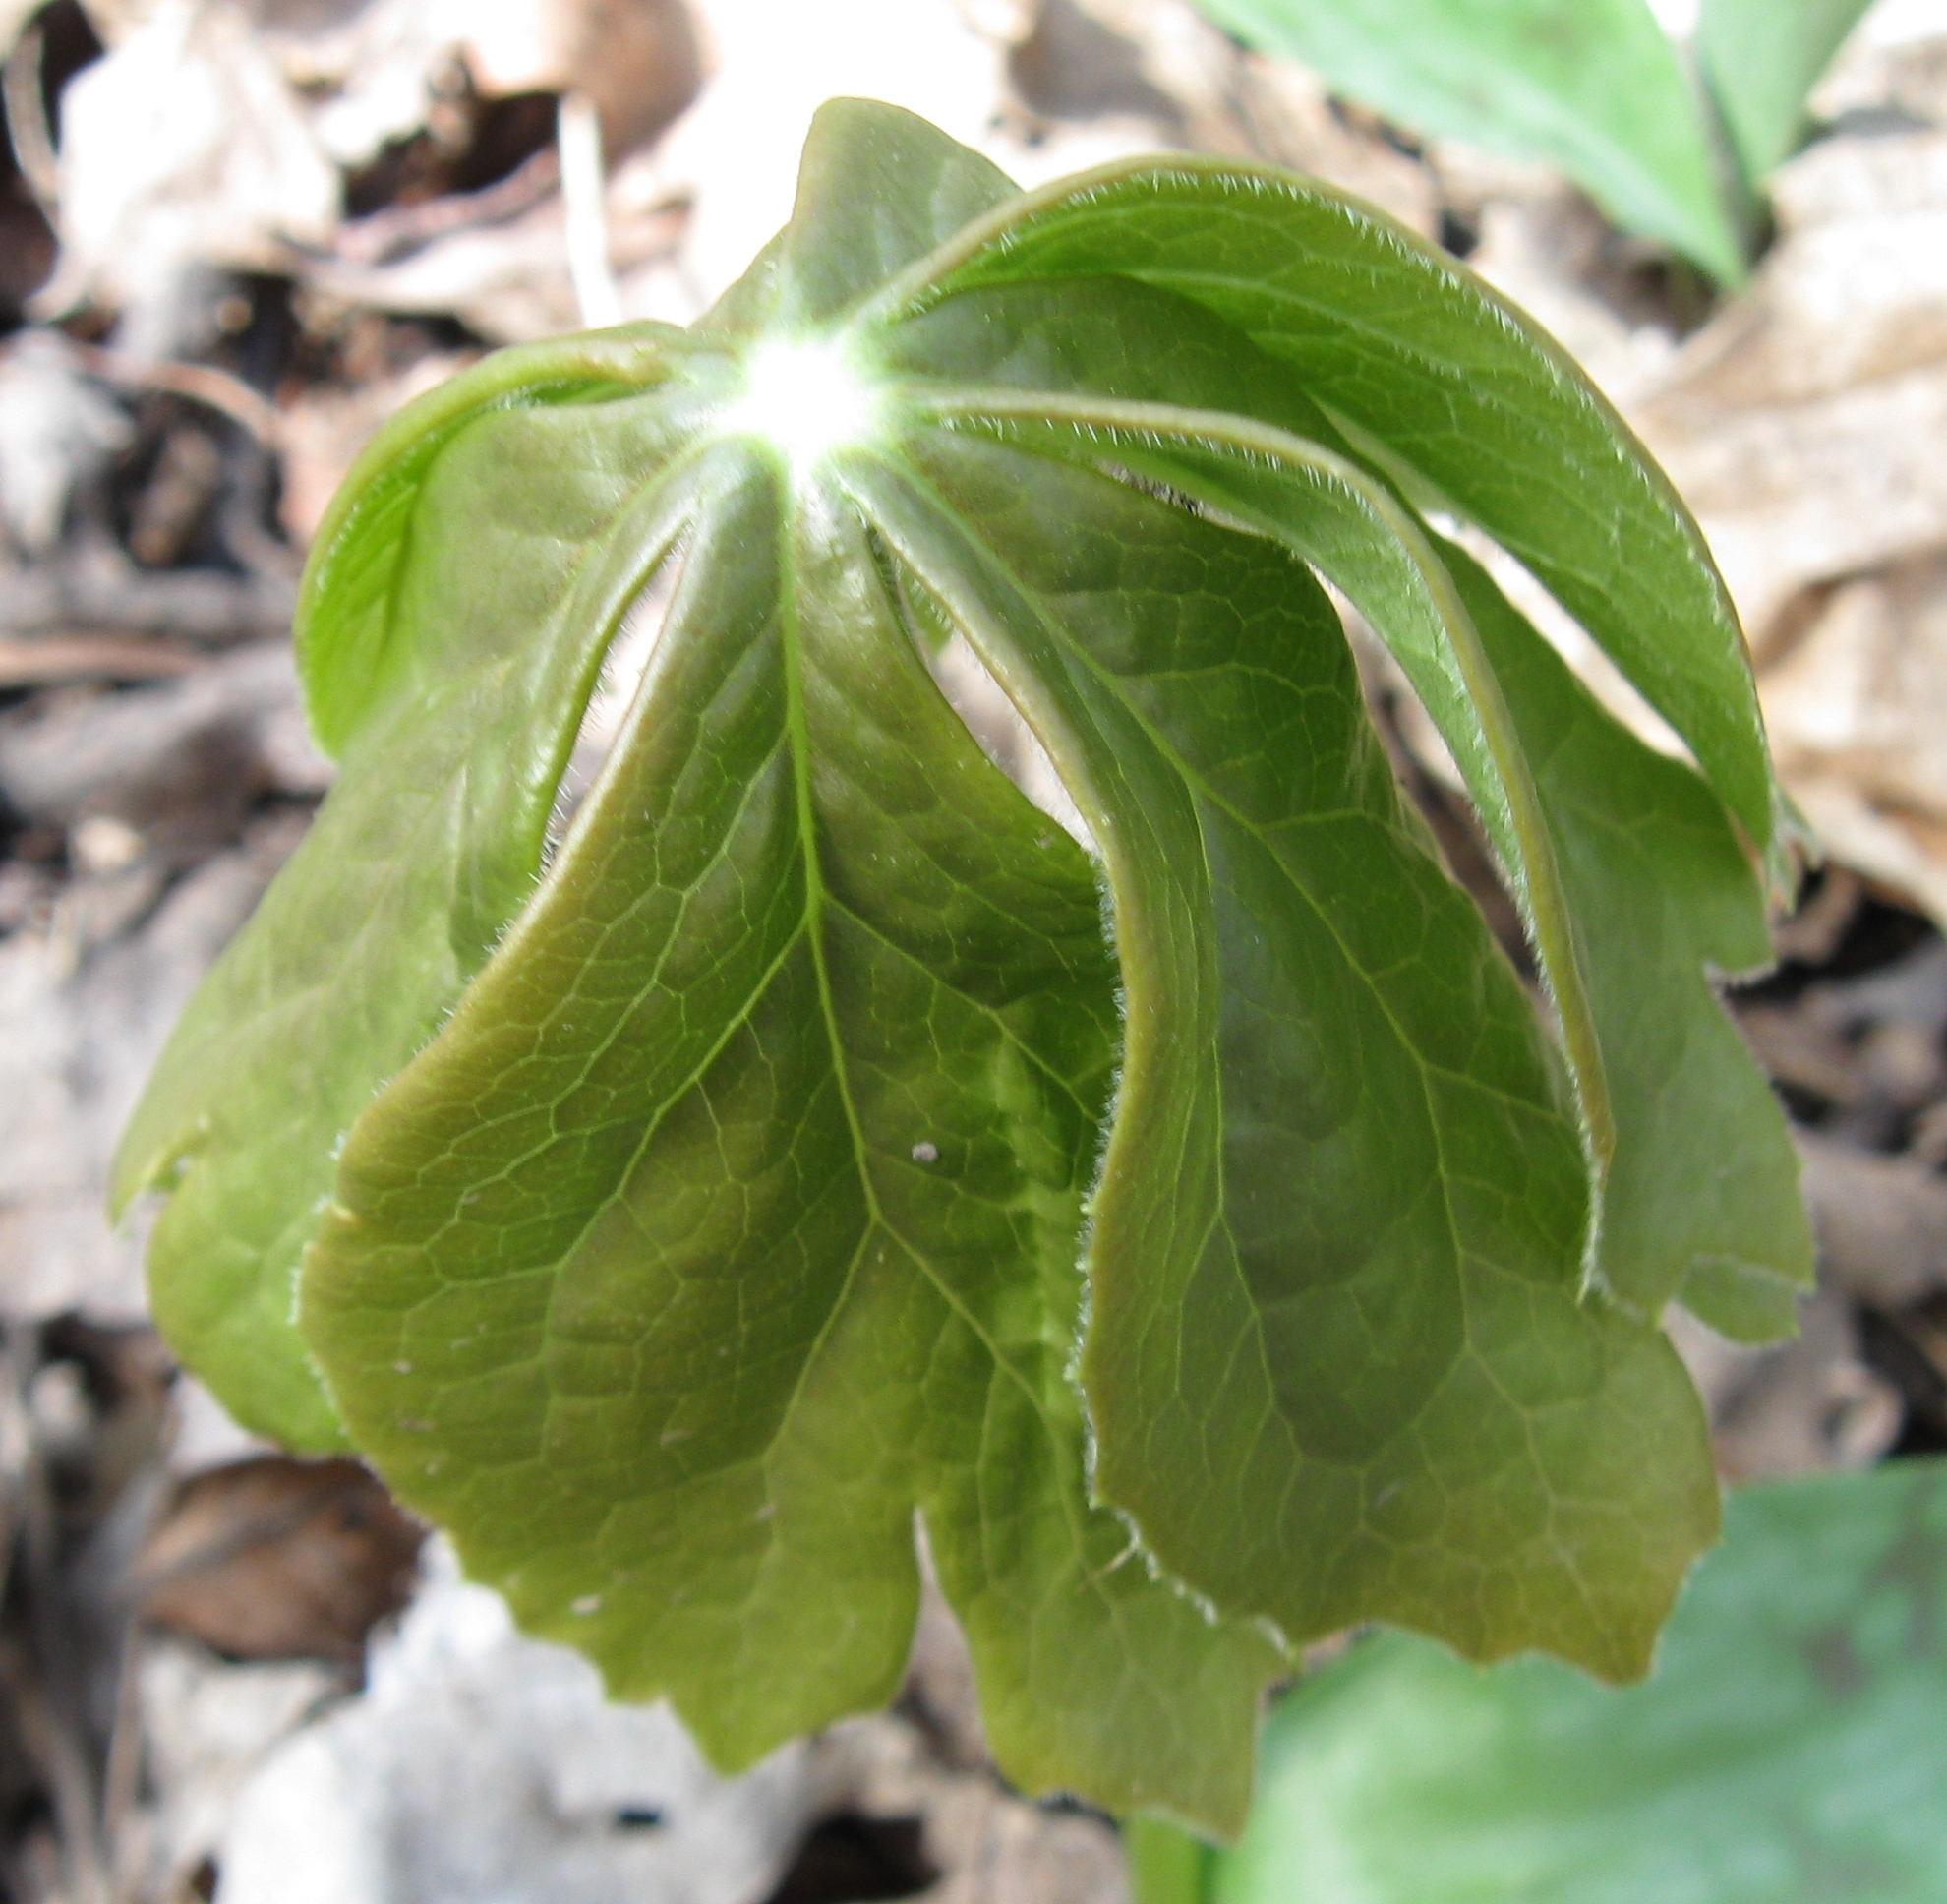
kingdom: Plantae
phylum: Tracheophyta
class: Magnoliopsida
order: Ranunculales
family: Berberidaceae
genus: Podophyllum
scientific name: Podophyllum peltatum
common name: Wild mandrake
